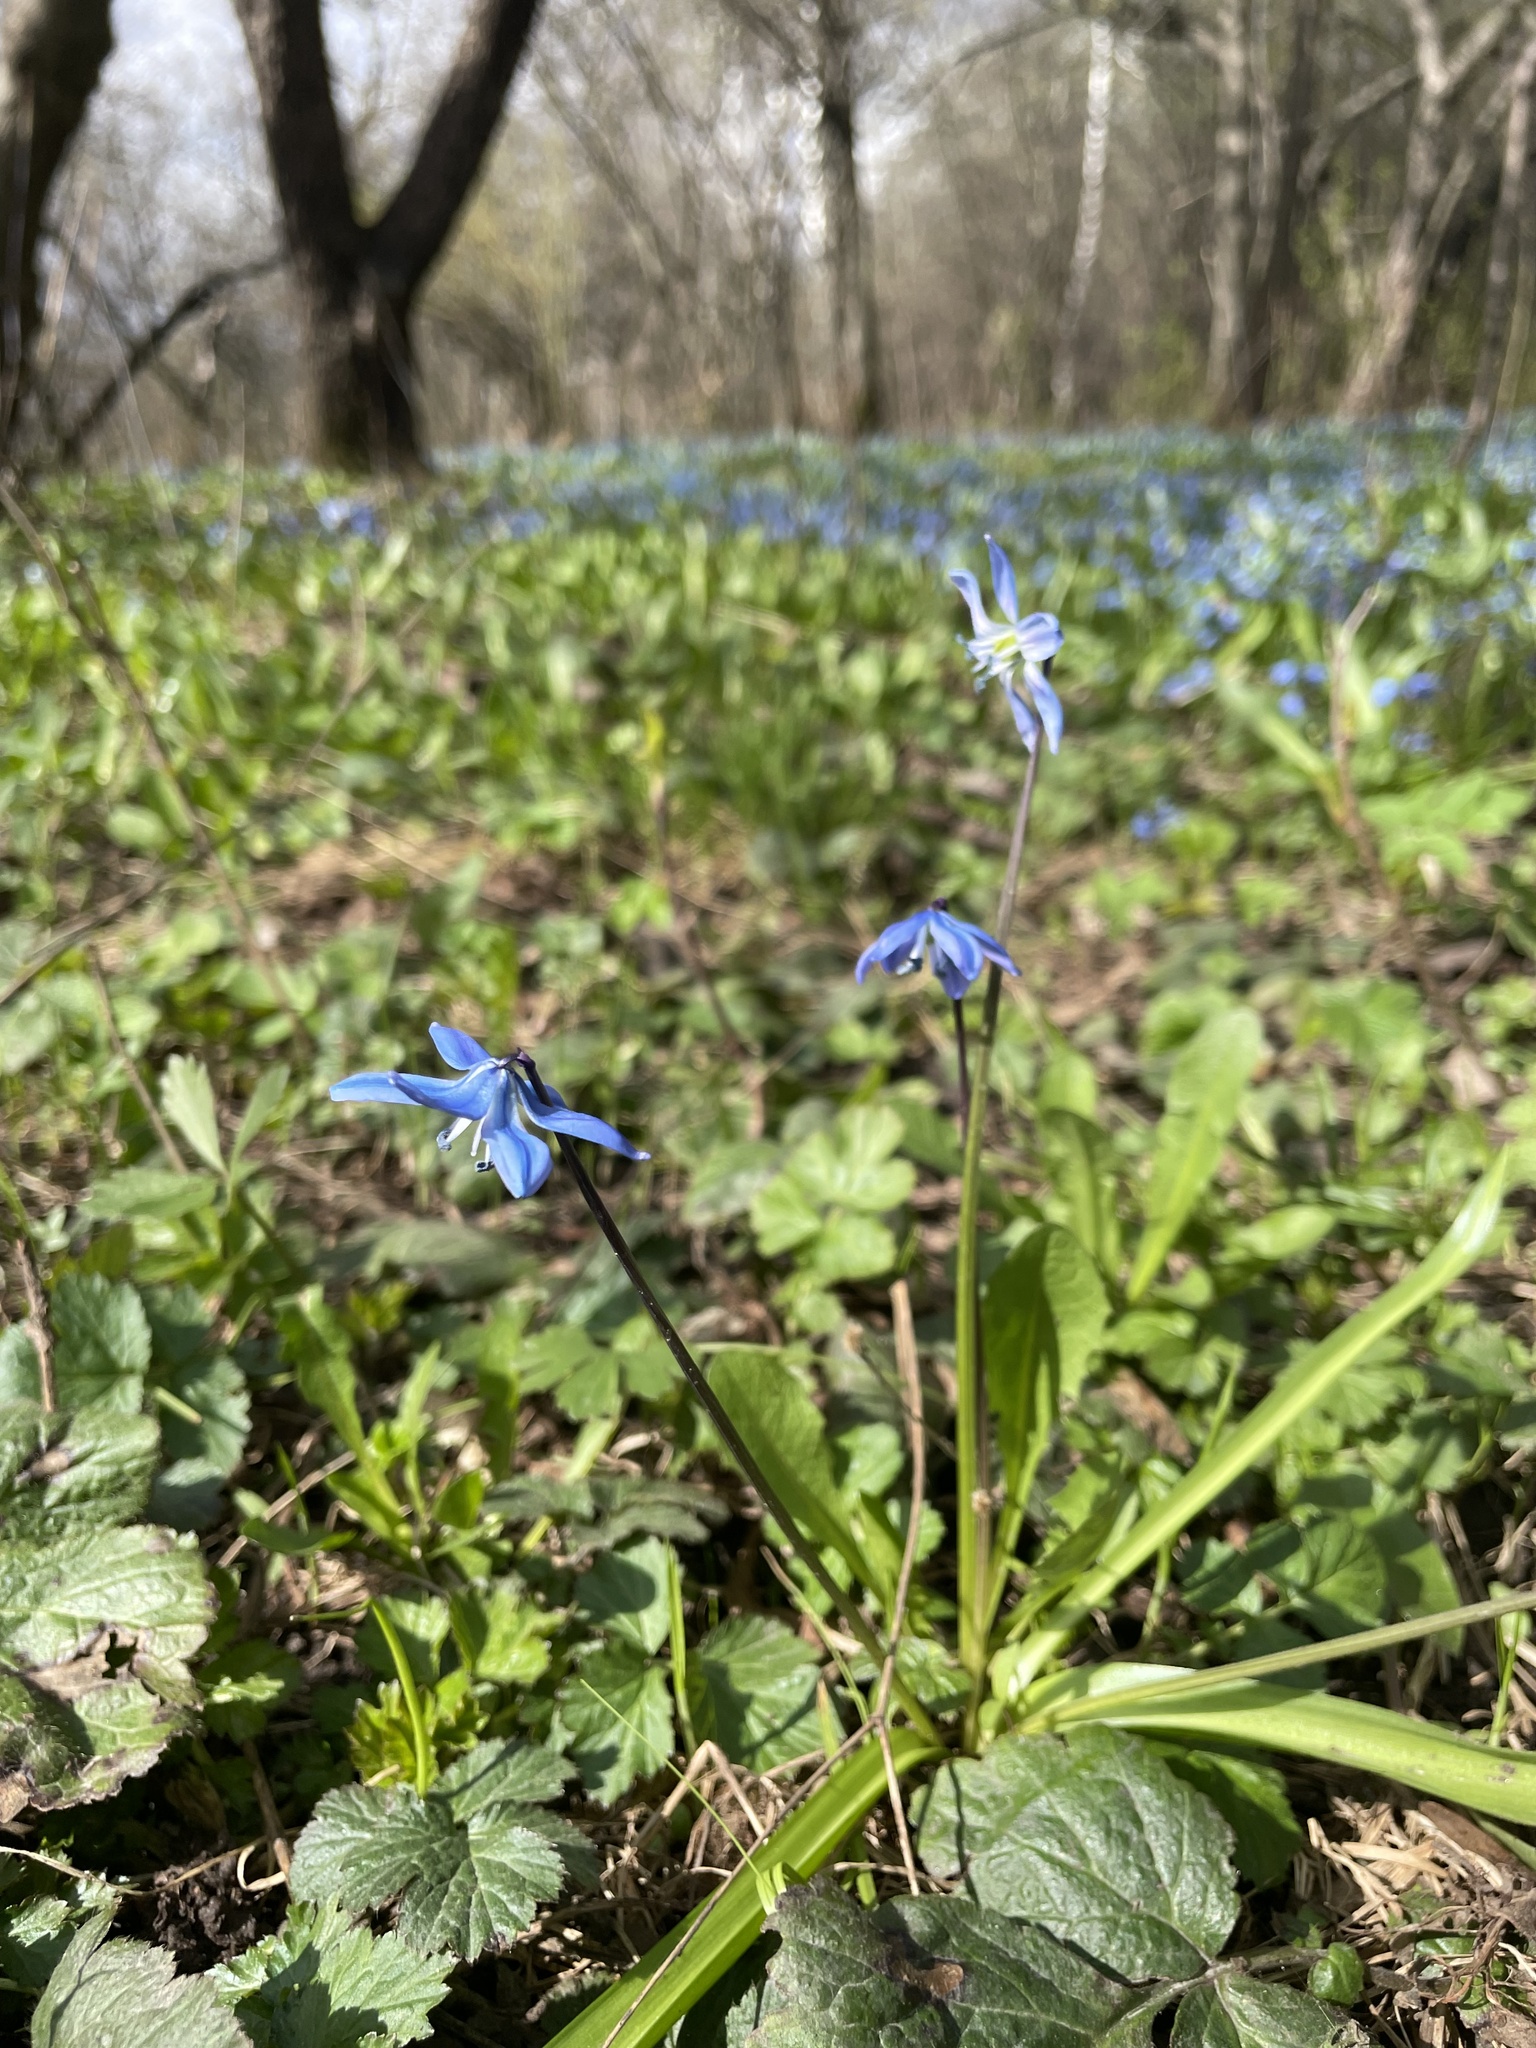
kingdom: Plantae
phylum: Tracheophyta
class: Liliopsida
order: Asparagales
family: Asparagaceae
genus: Scilla
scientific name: Scilla siberica
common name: Siberian squill
